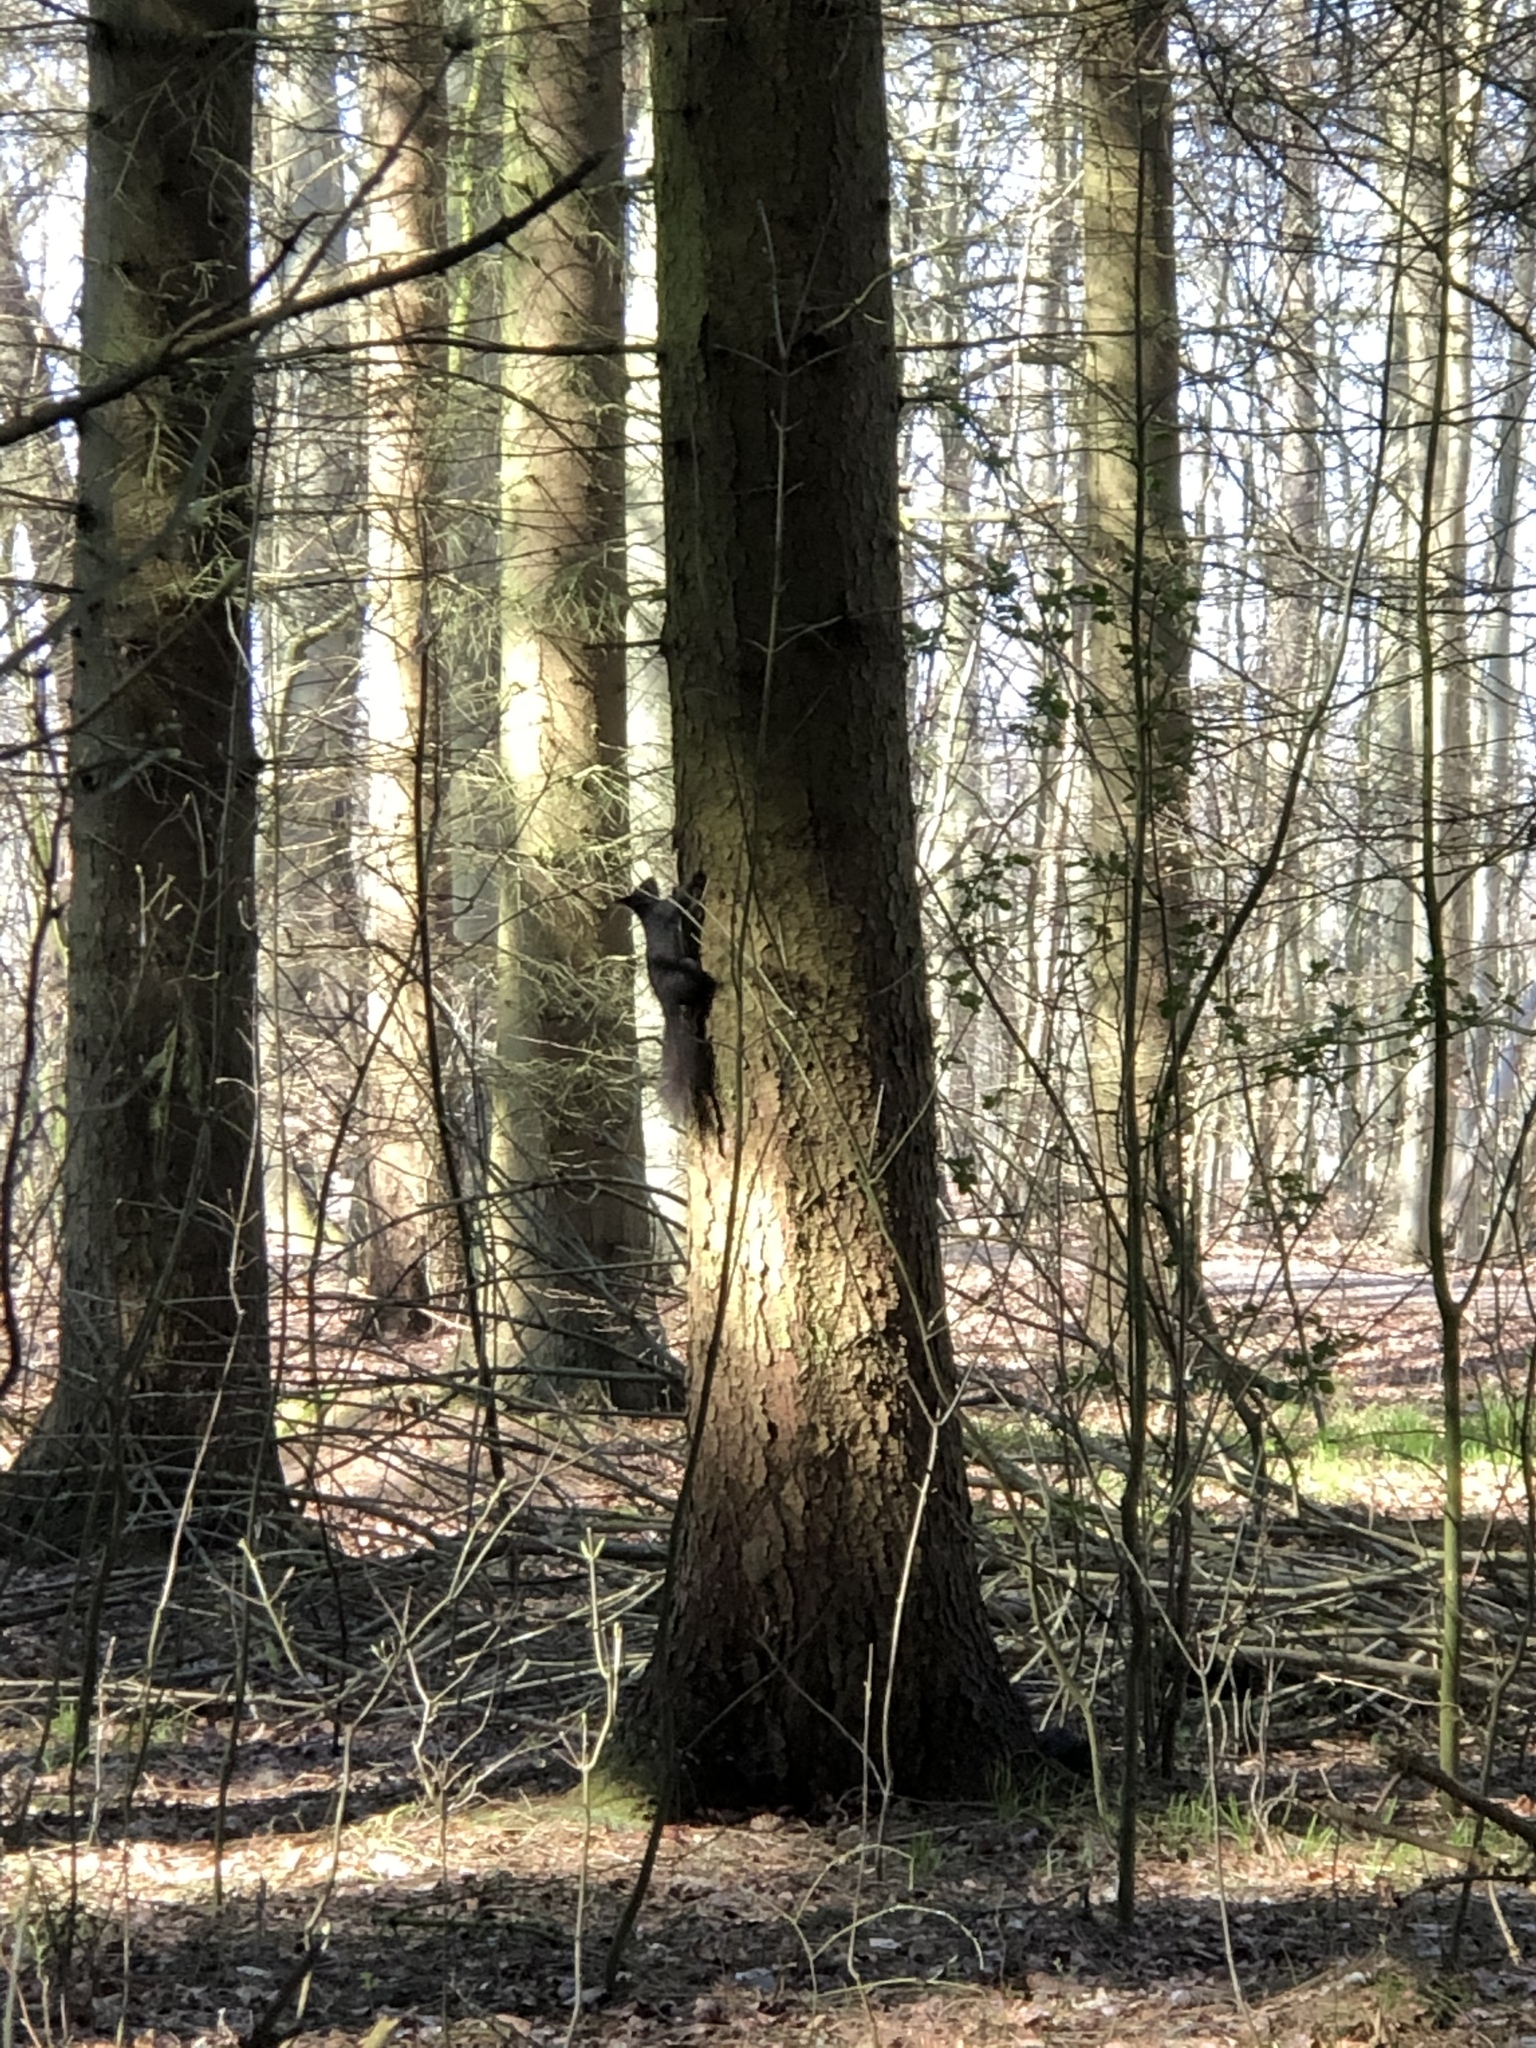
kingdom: Animalia
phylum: Chordata
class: Mammalia
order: Rodentia
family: Sciuridae
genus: Sciurus
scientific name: Sciurus vulgaris
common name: Eurasian red squirrel
